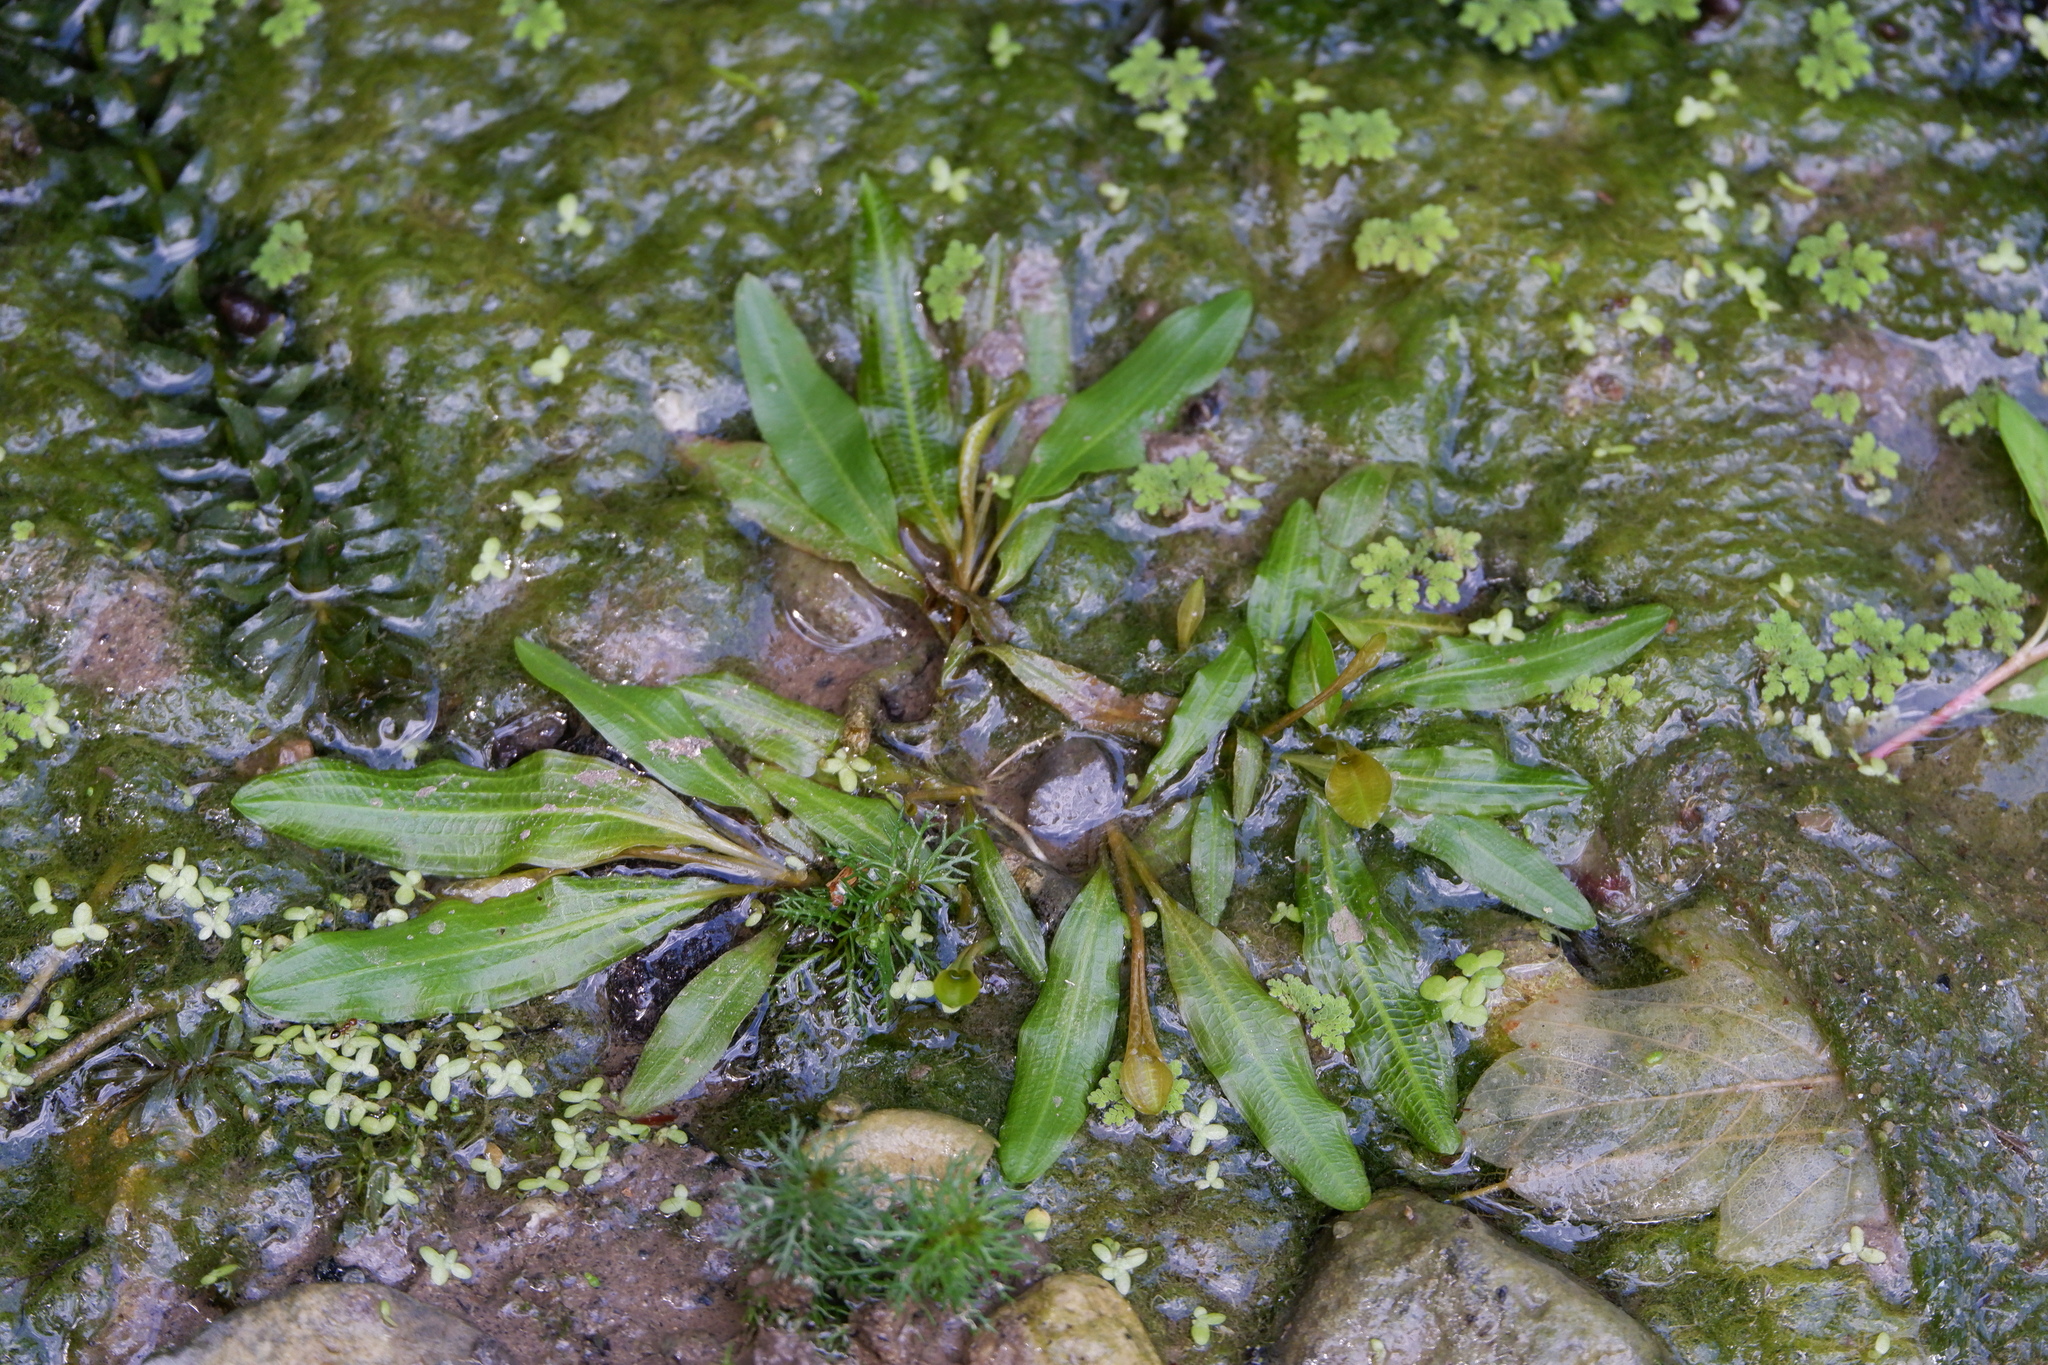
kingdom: Plantae
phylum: Tracheophyta
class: Liliopsida
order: Alismatales
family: Potamogetonaceae
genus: Potamogeton
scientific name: Potamogeton illinoensis
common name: Illinois pondweed
